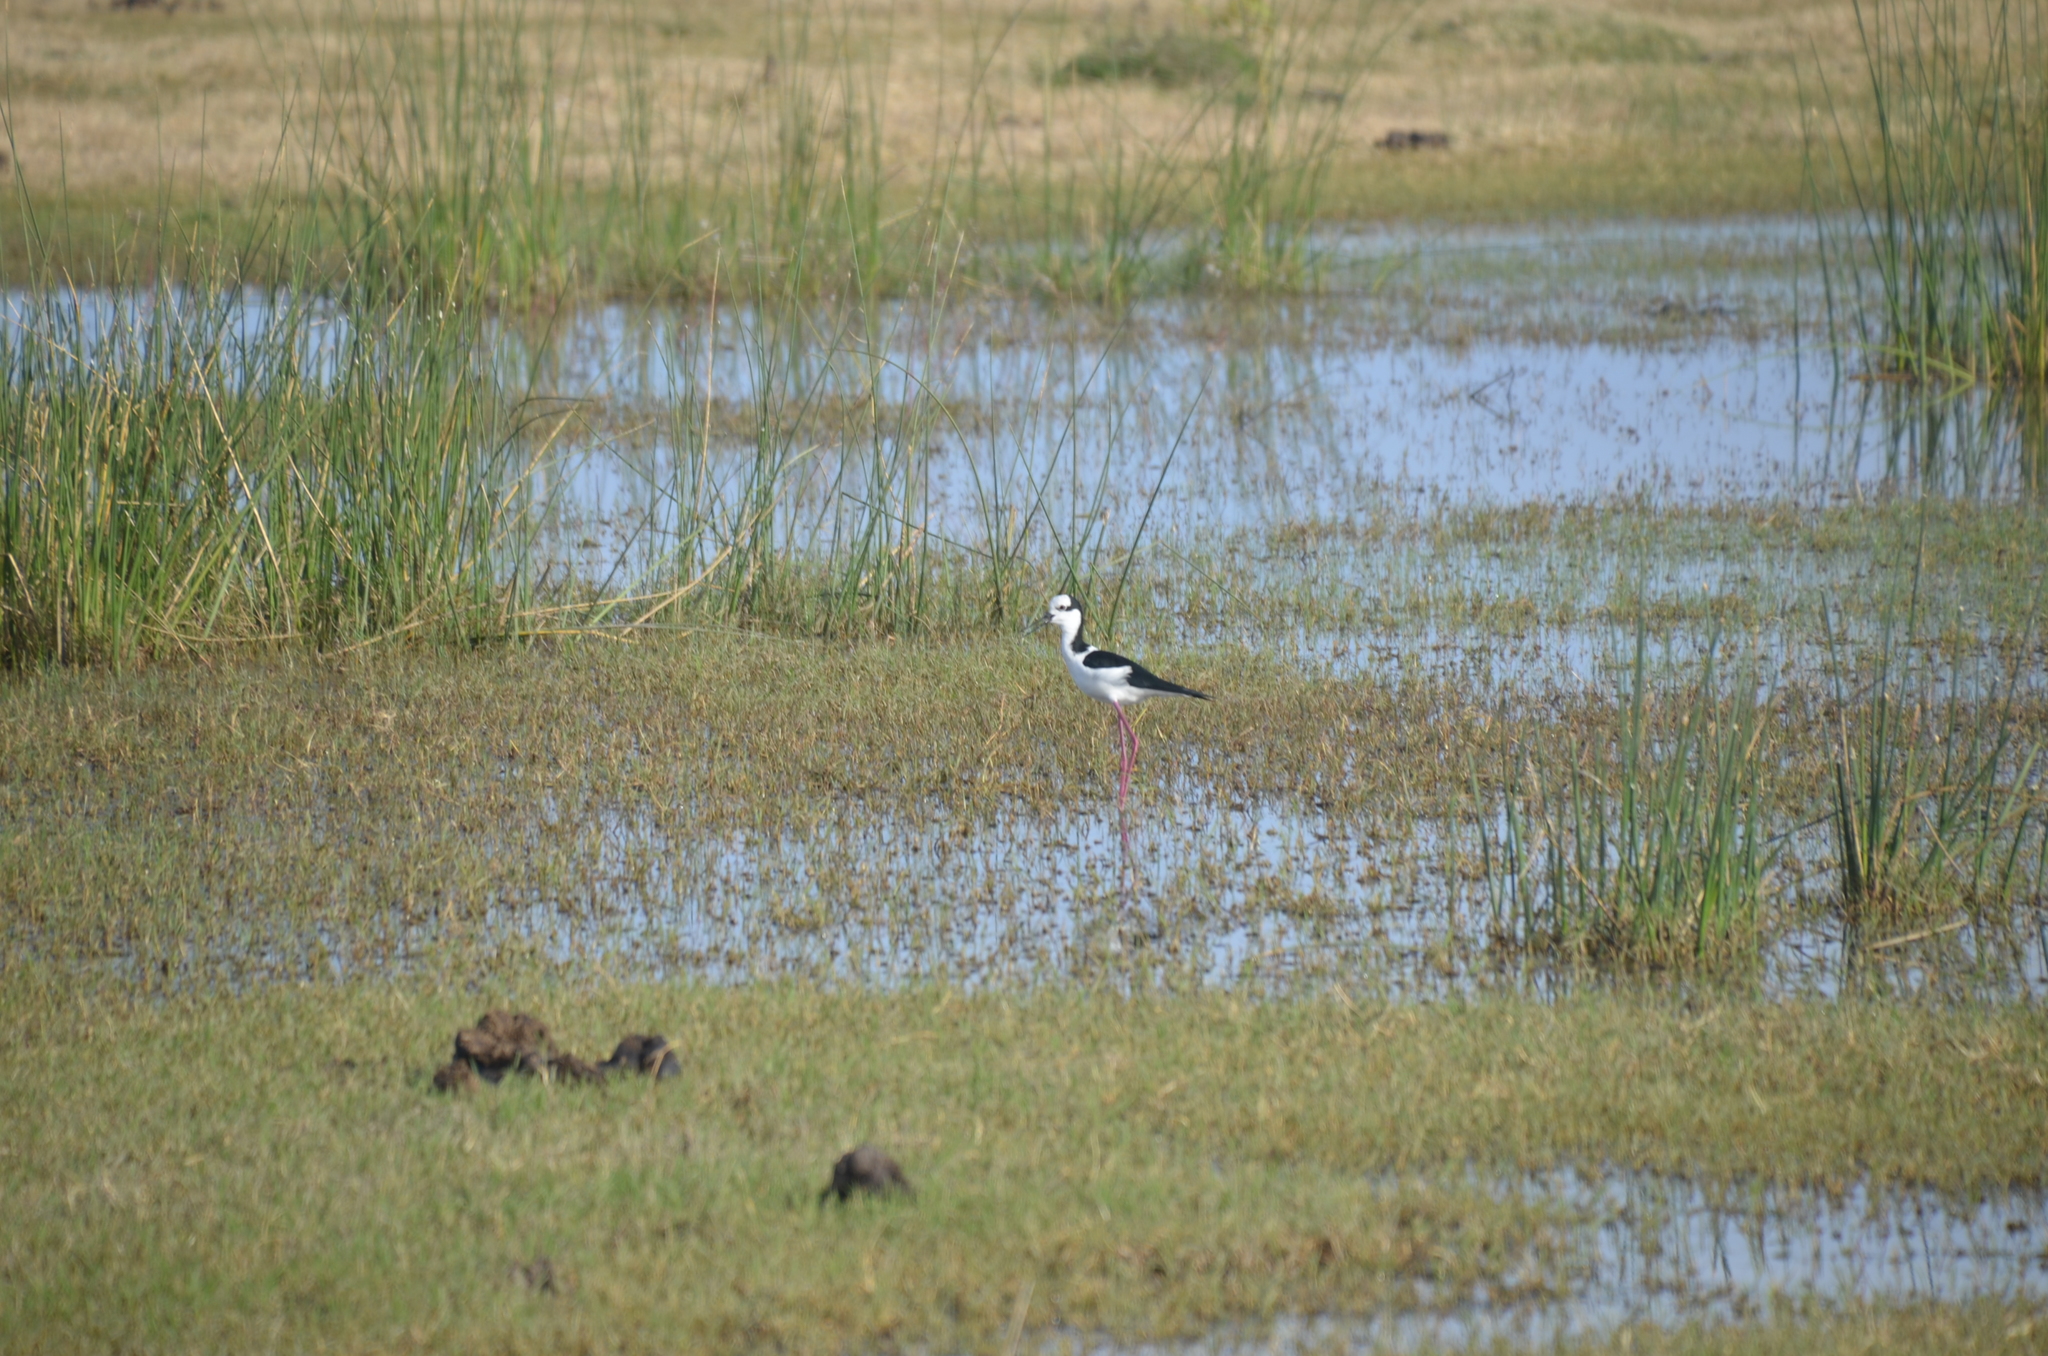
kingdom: Animalia
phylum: Chordata
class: Aves
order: Charadriiformes
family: Recurvirostridae
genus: Himantopus
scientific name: Himantopus mexicanus
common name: Black-necked stilt
